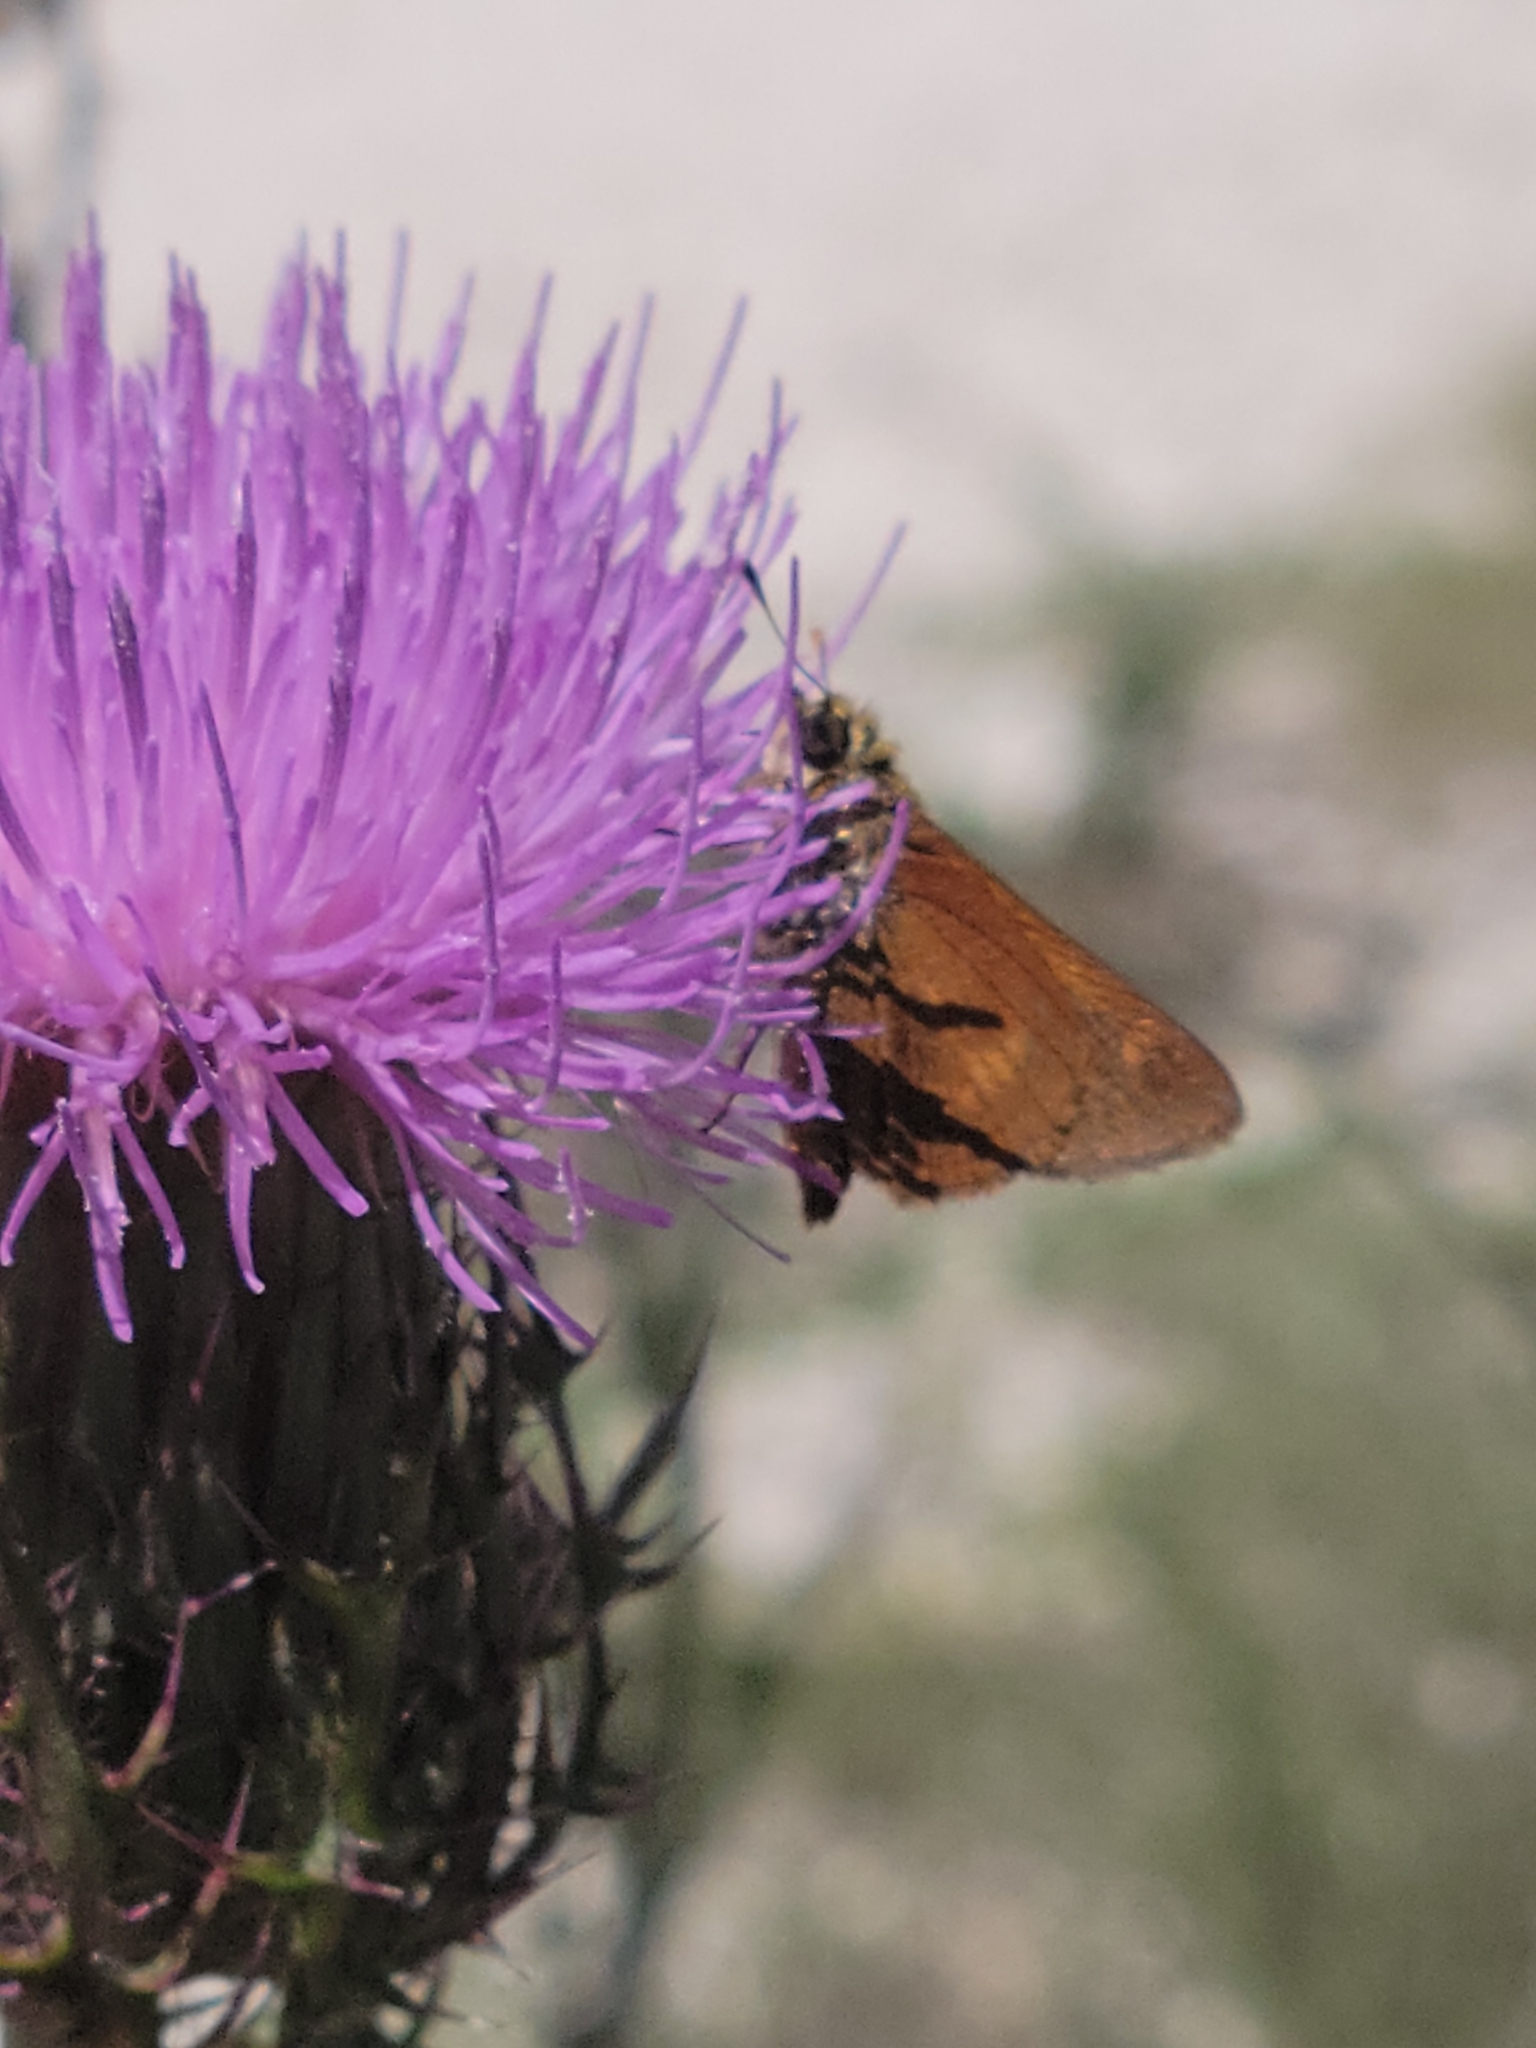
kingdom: Animalia
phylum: Arthropoda
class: Insecta
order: Lepidoptera
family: Hesperiidae
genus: Polites
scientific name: Polites otho
